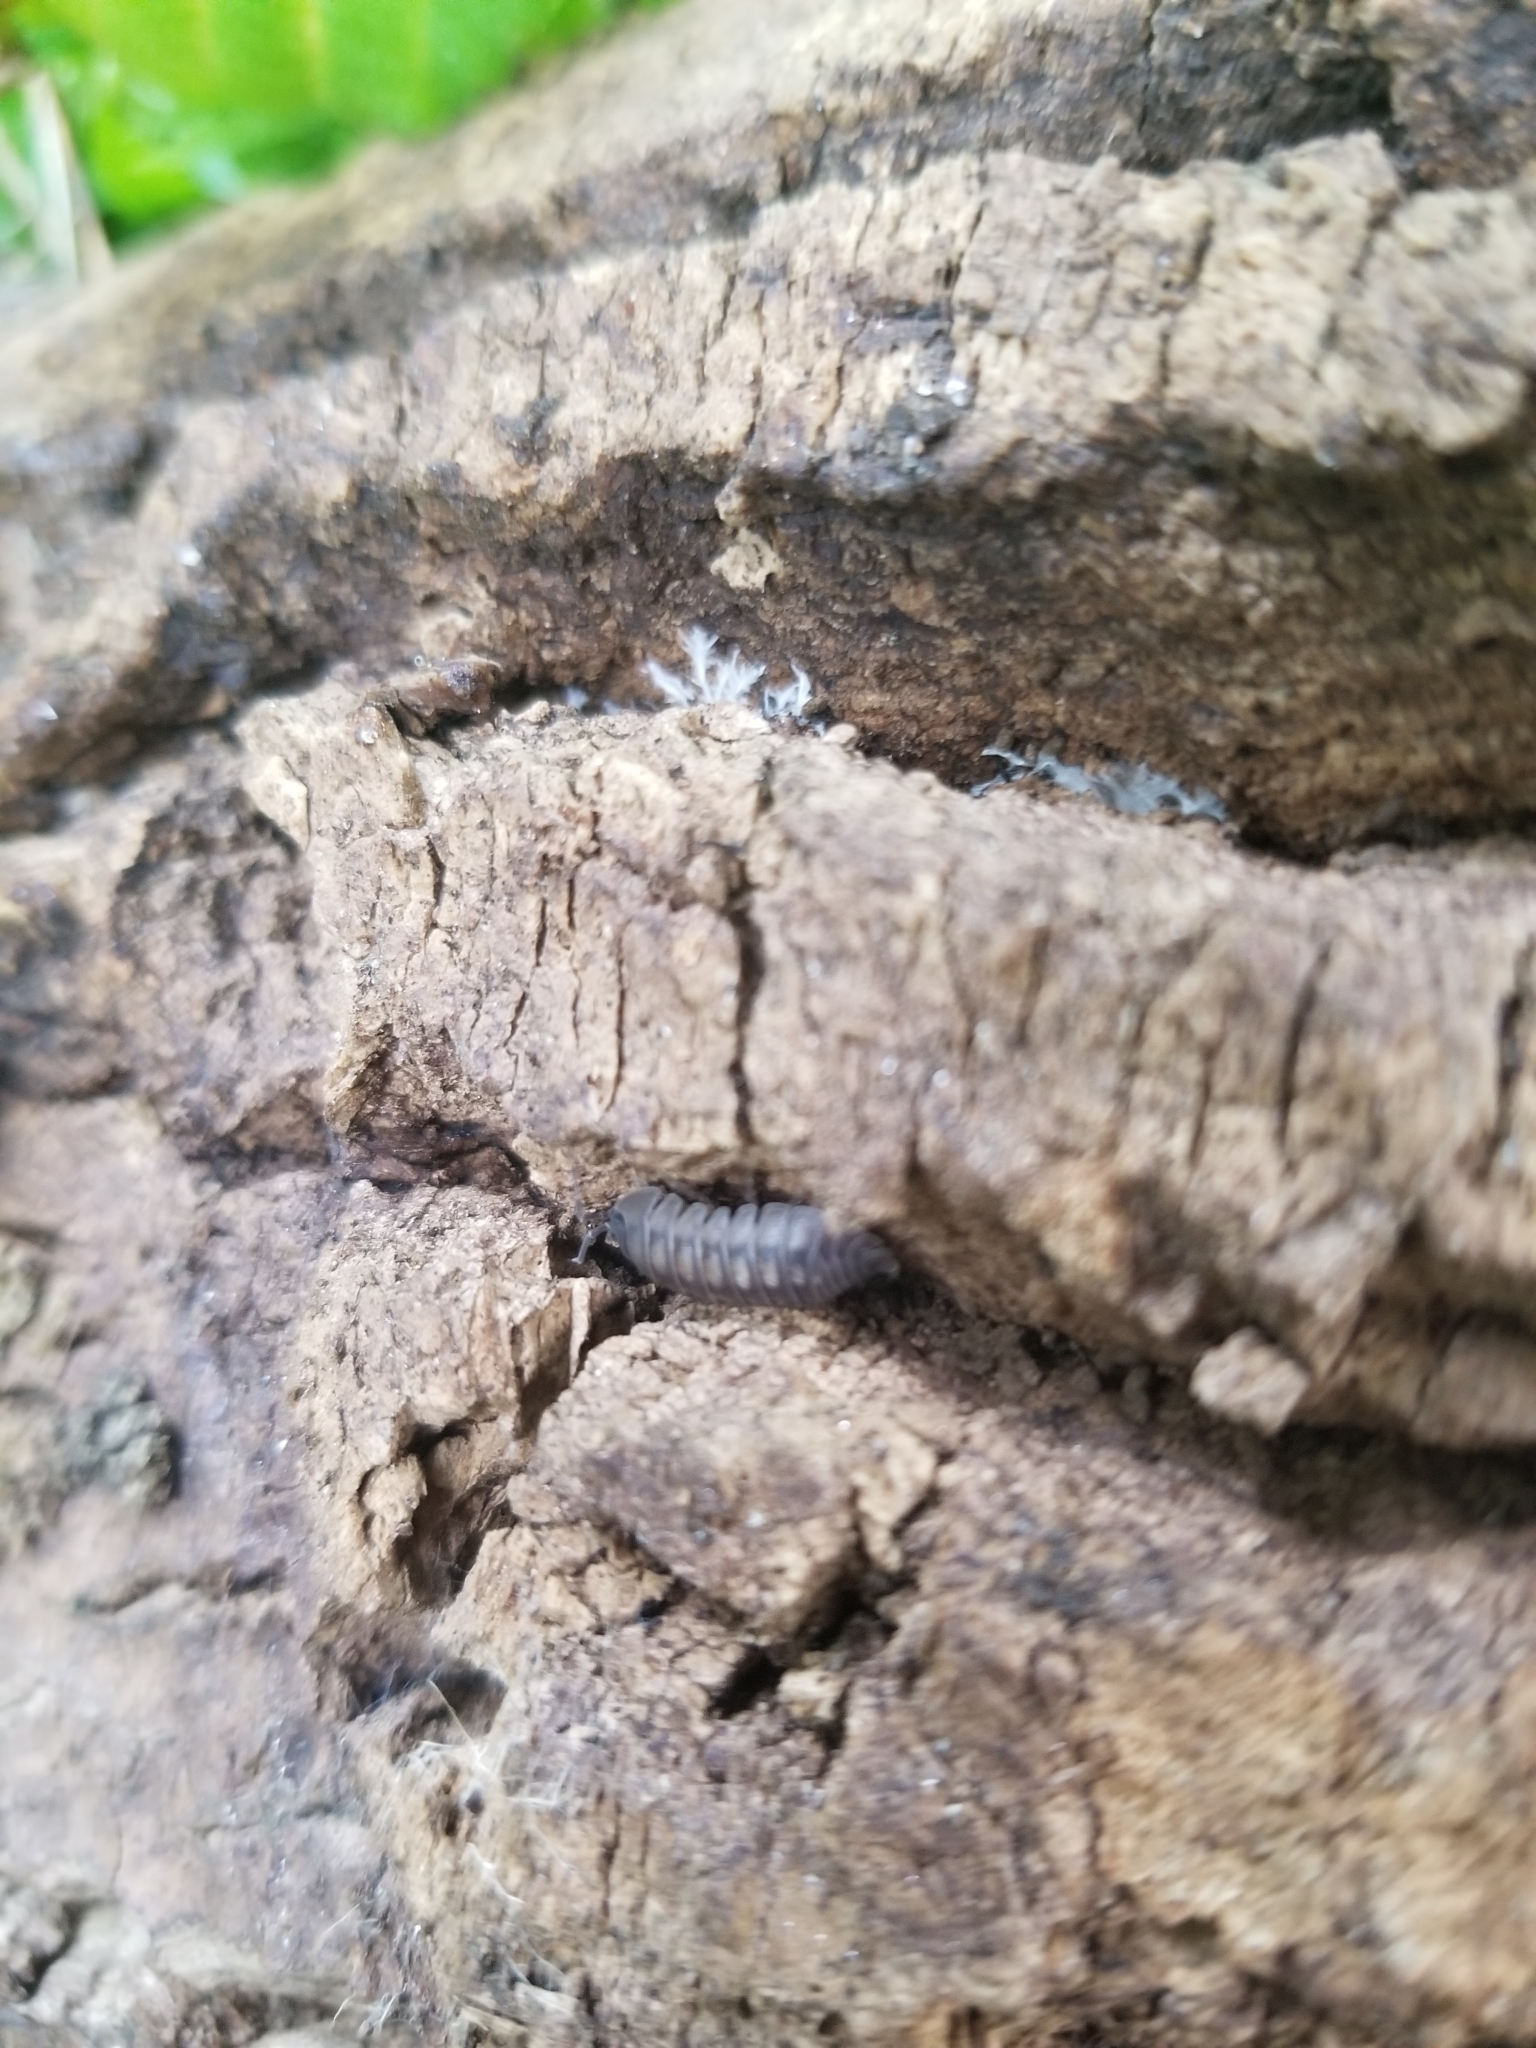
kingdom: Animalia
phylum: Arthropoda
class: Malacostraca
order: Isopoda
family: Armadillidiidae
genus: Armadillidium
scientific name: Armadillidium nasatum
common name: Isopod
